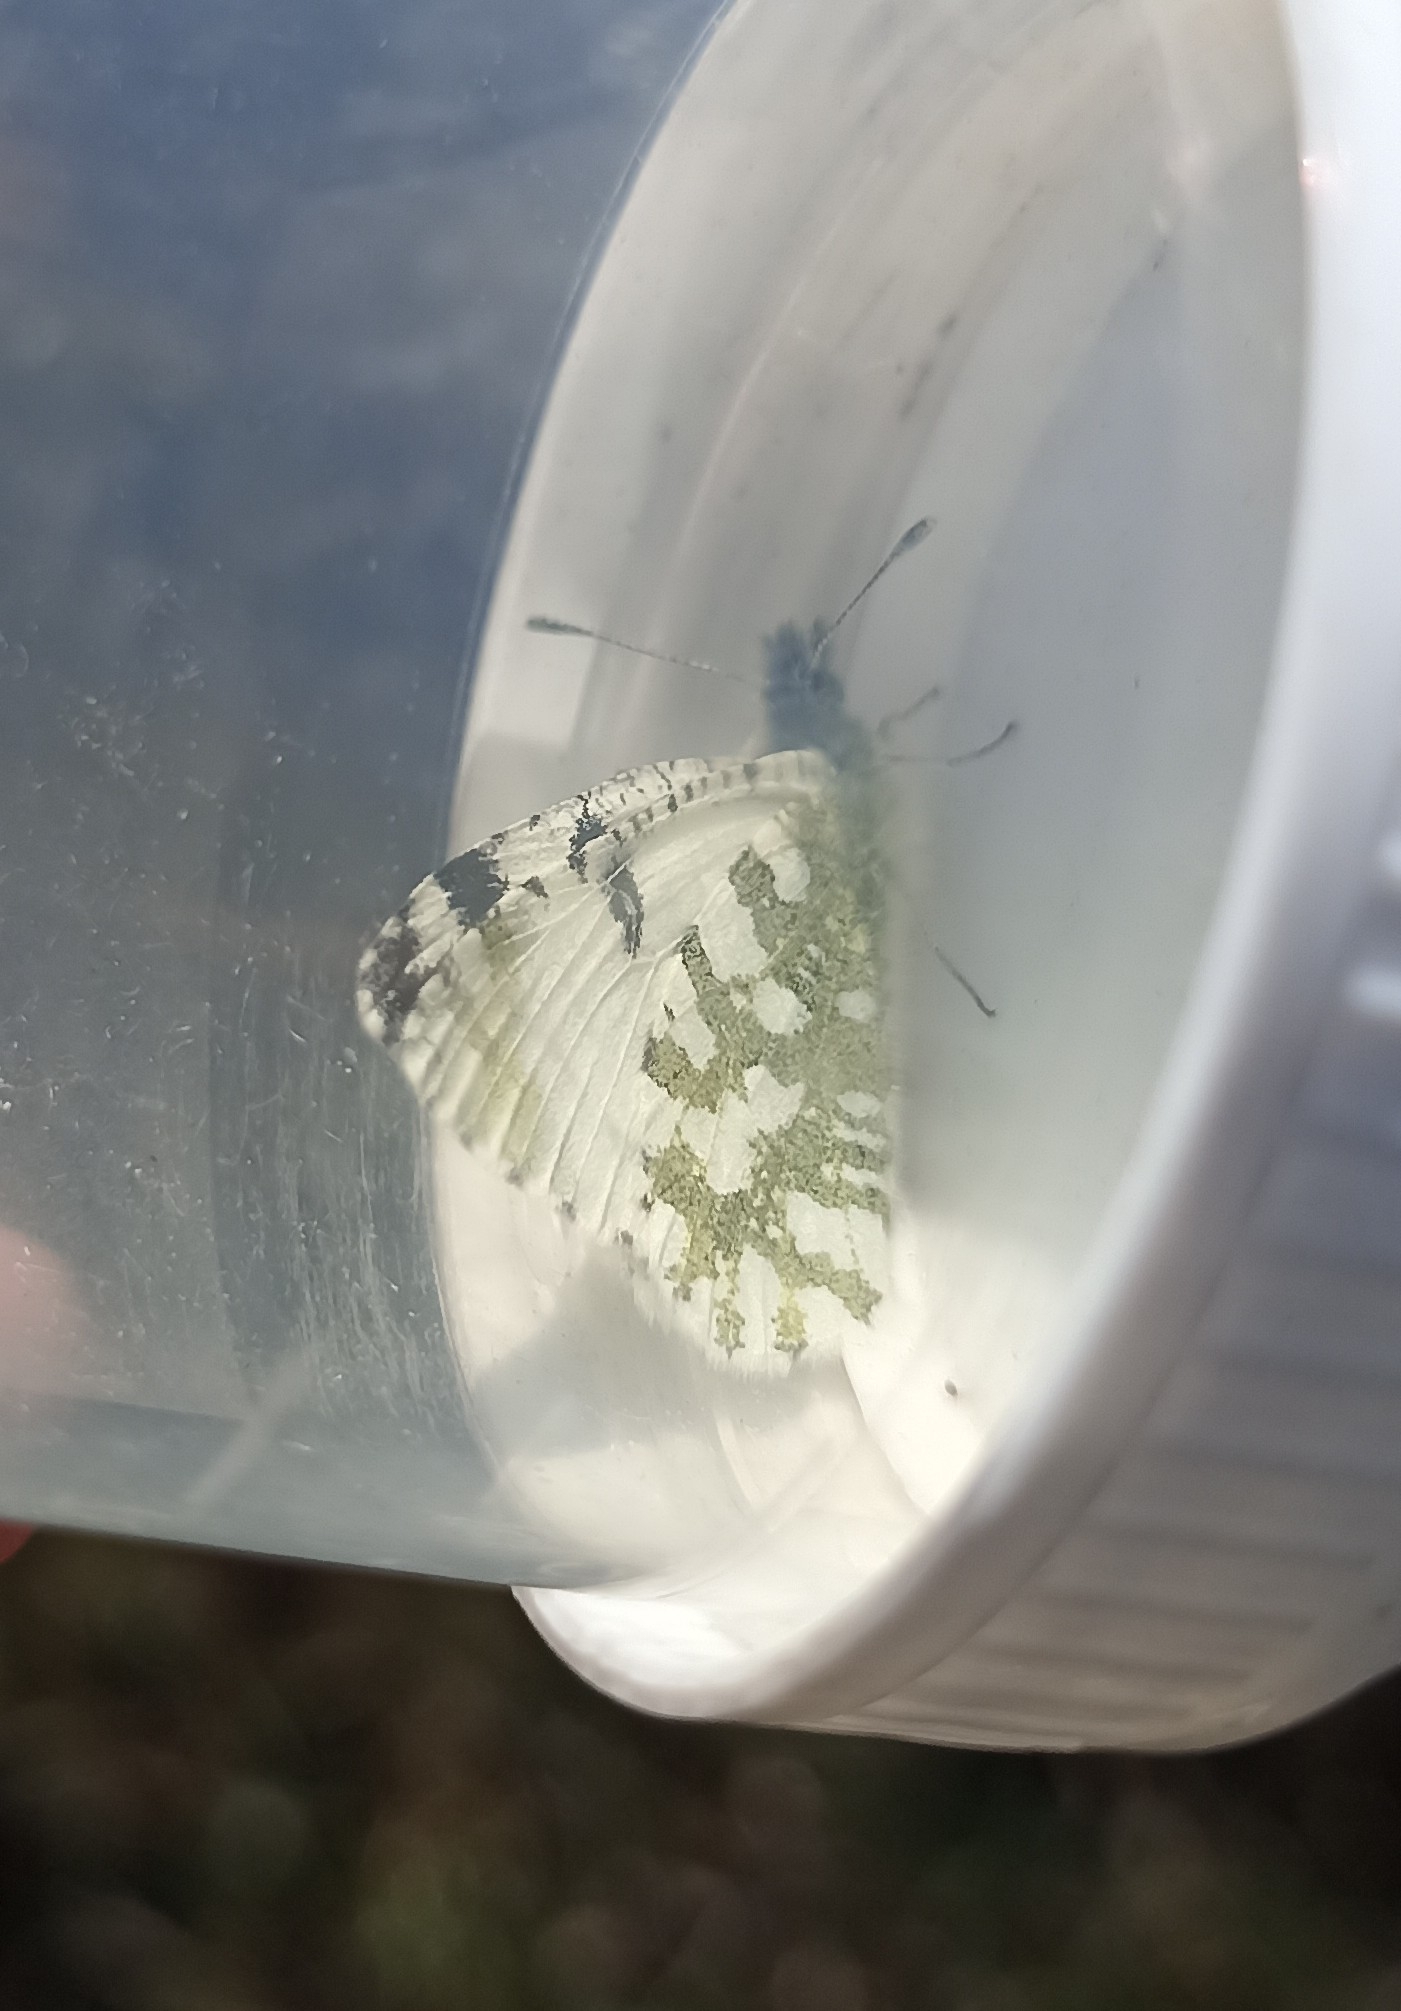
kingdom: Animalia
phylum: Arthropoda
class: Insecta
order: Lepidoptera
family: Pieridae
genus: Euchloe
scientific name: Euchloe crameri
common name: Western dappled white
